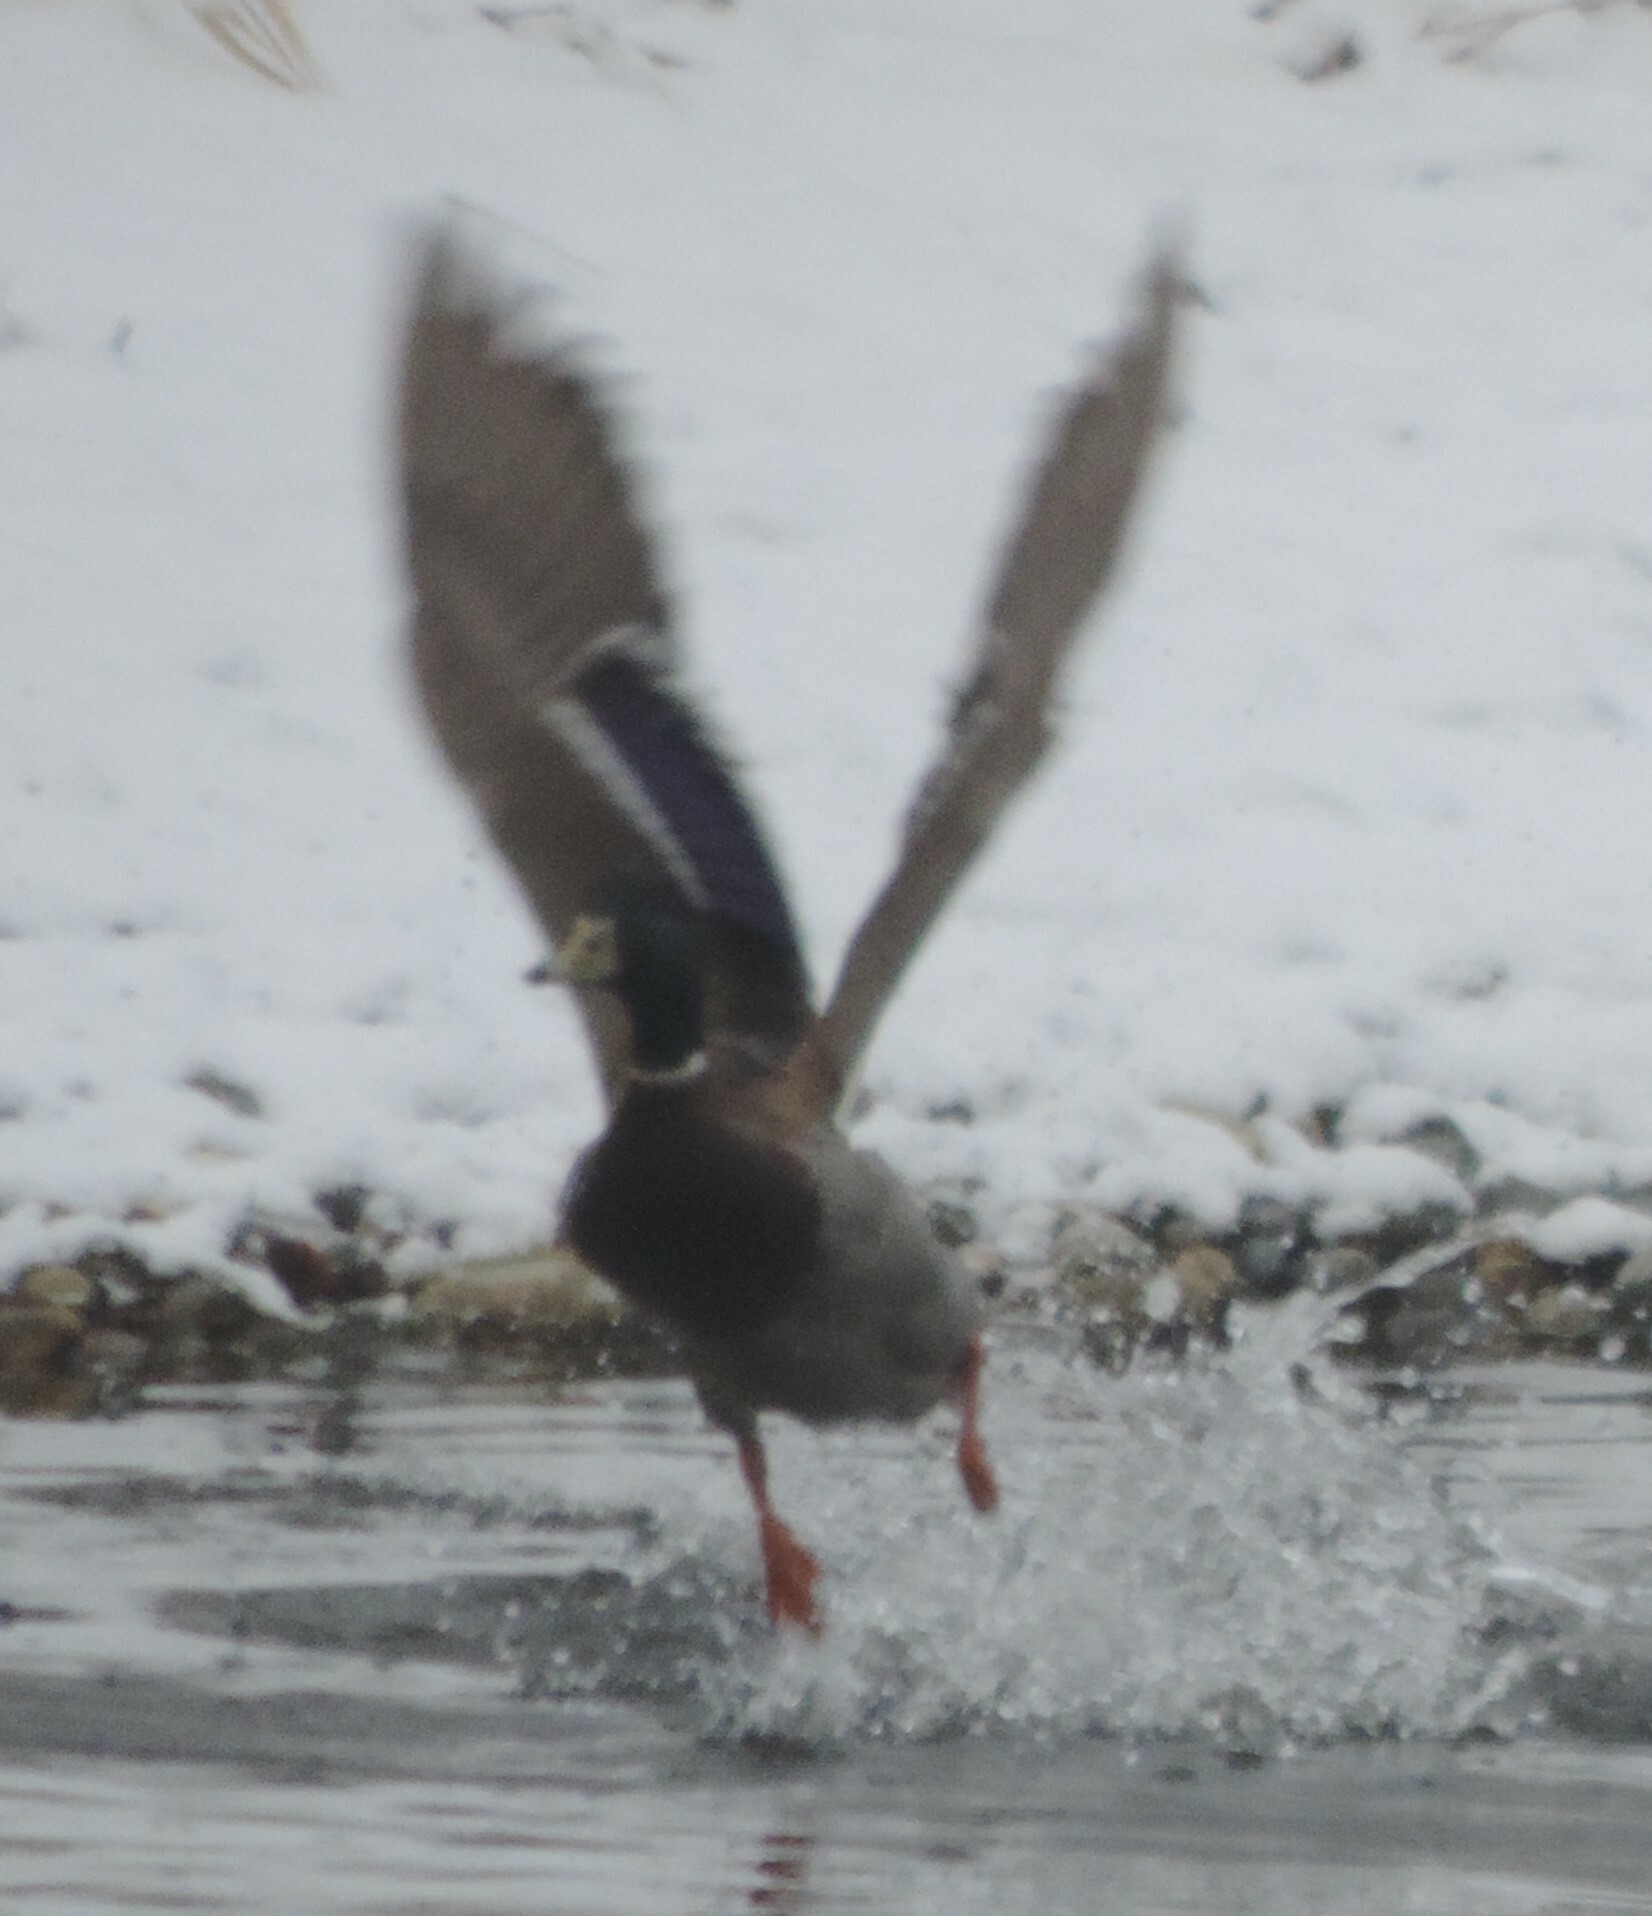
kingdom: Animalia
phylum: Chordata
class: Aves
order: Anseriformes
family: Anatidae
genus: Anas
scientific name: Anas platyrhynchos
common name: Mallard
